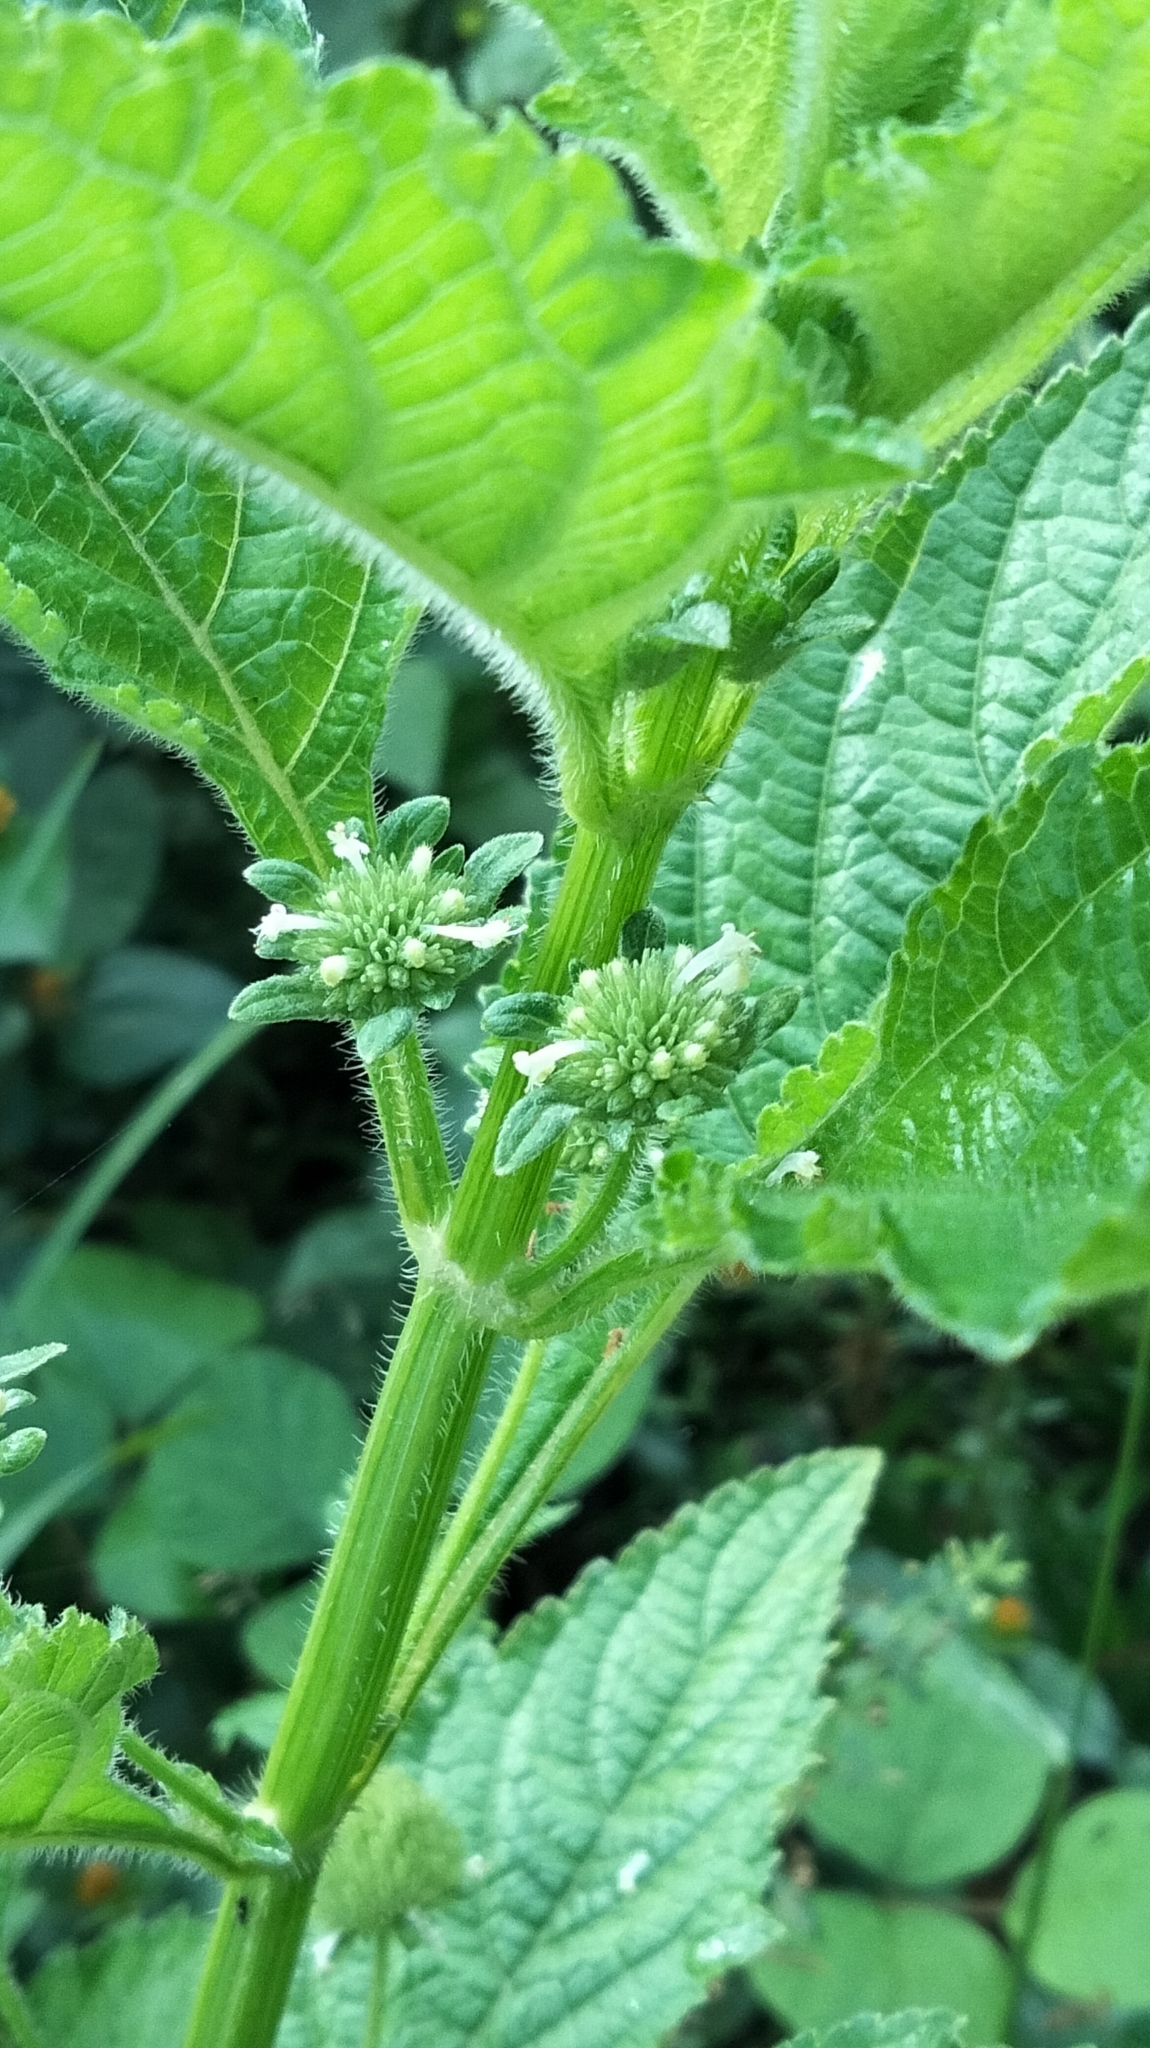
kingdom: Plantae
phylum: Tracheophyta
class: Magnoliopsida
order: Lamiales
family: Lamiaceae
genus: Leucas
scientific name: Leucas martinicensis
